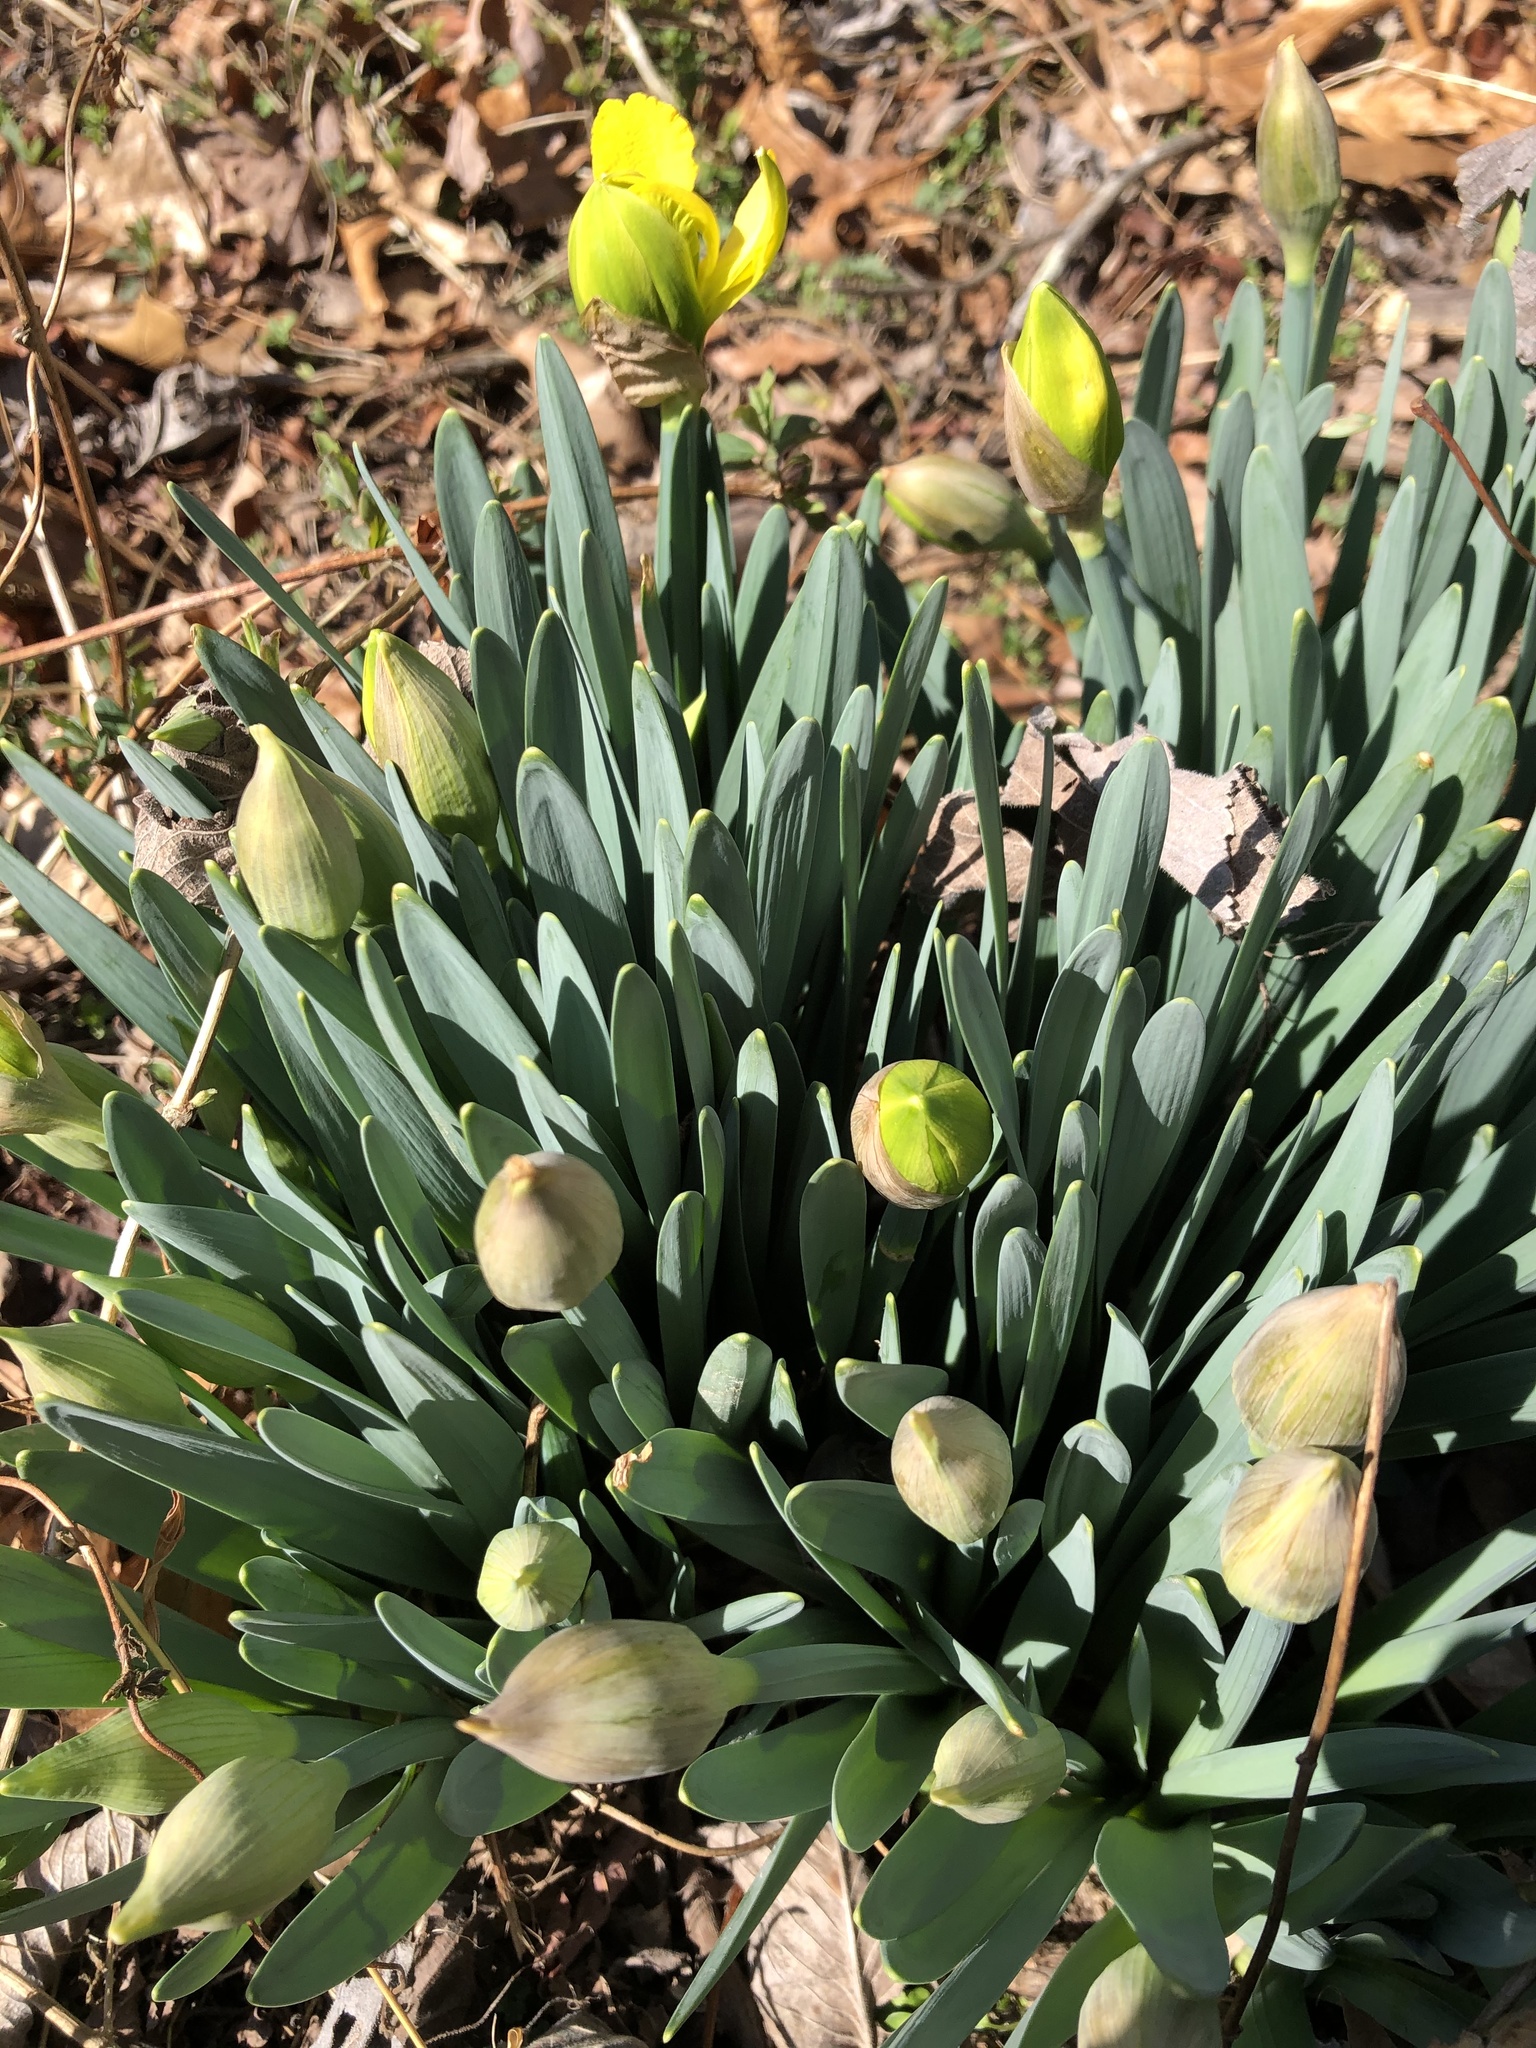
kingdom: Plantae
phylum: Tracheophyta
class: Liliopsida
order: Asparagales
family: Amaryllidaceae
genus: Narcissus
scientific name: Narcissus
